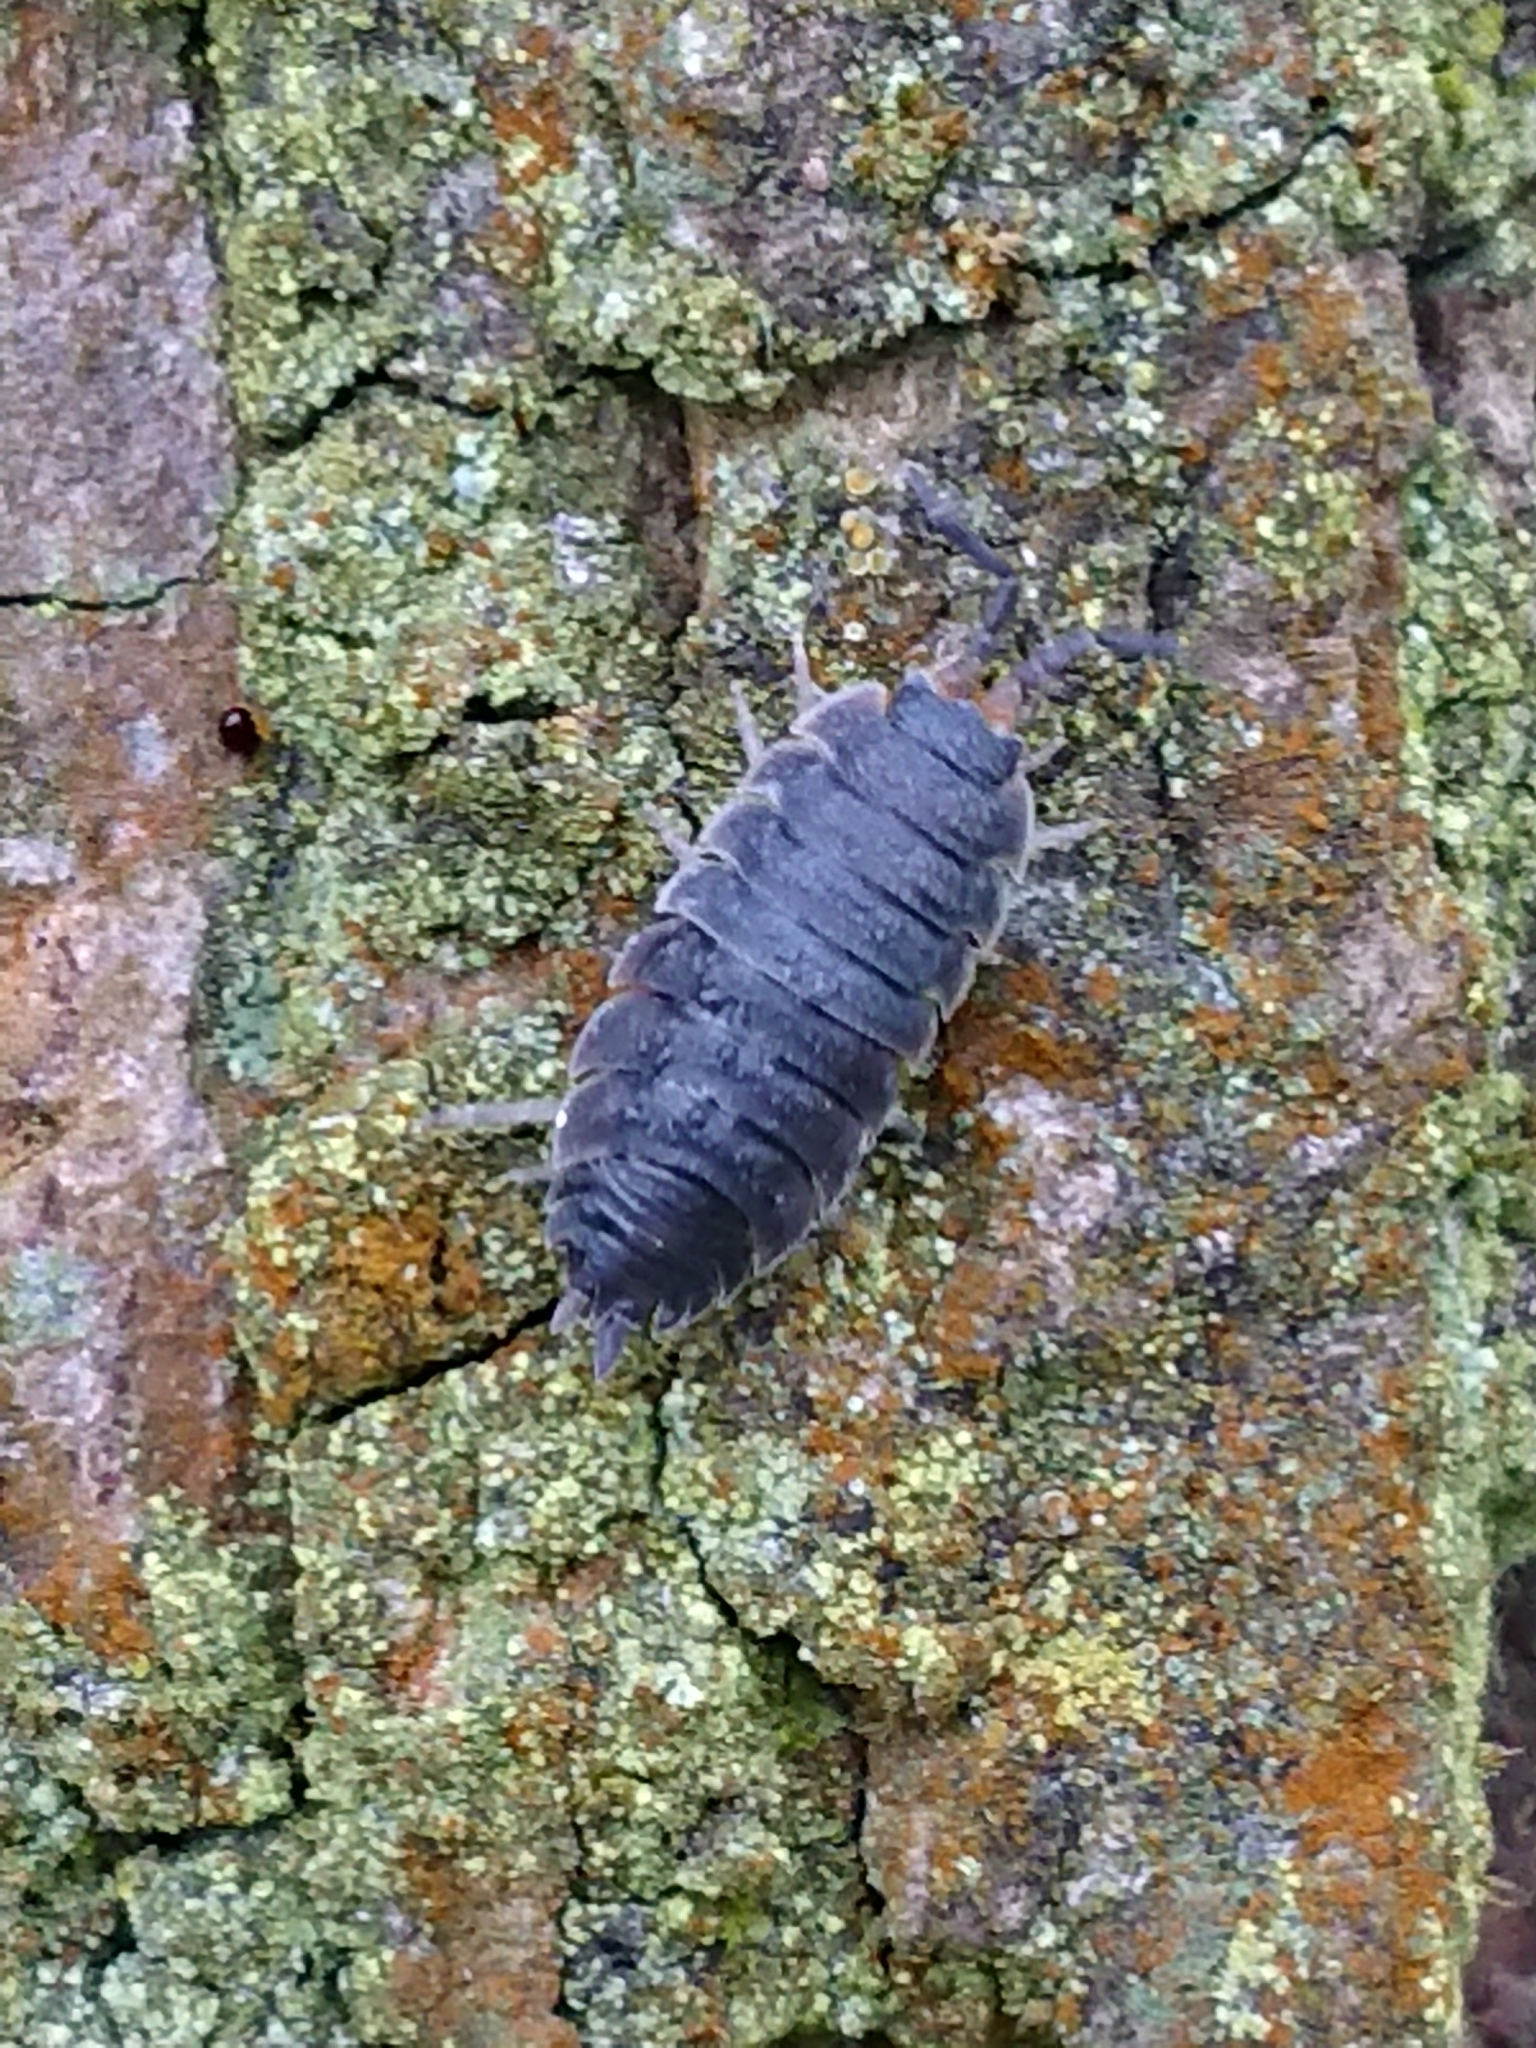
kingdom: Animalia
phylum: Arthropoda
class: Malacostraca
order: Isopoda
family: Porcellionidae
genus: Porcellio
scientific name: Porcellio scaber
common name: Common rough woodlouse
